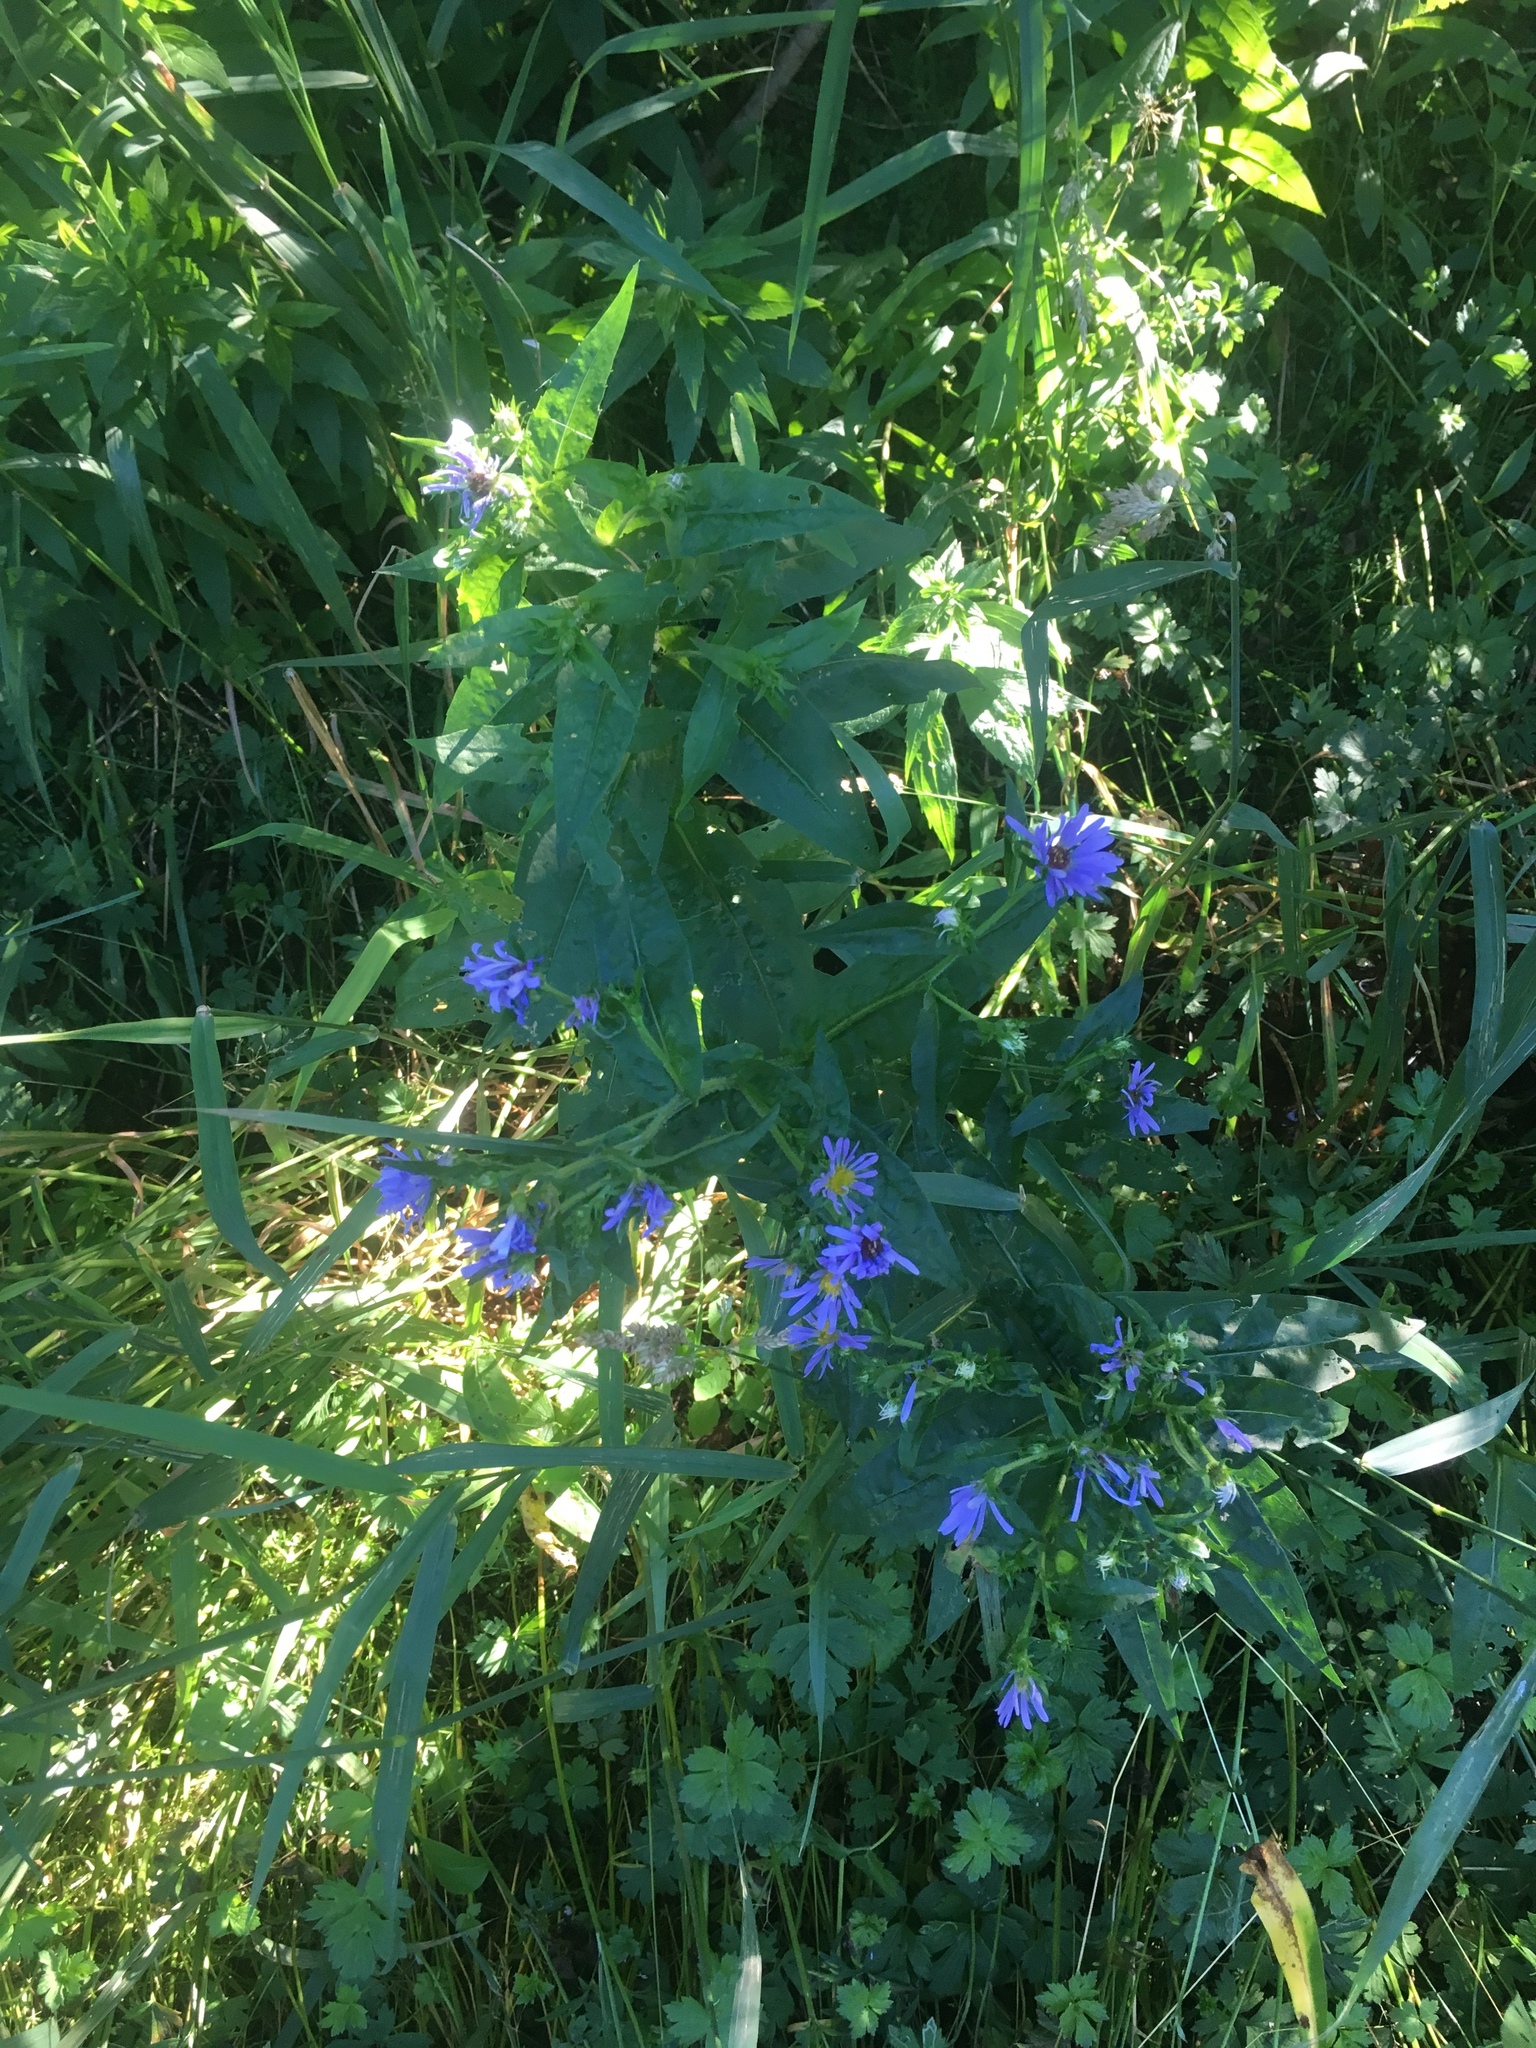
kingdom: Plantae
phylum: Tracheophyta
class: Magnoliopsida
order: Asterales
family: Asteraceae
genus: Symphyotrichum
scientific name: Symphyotrichum puniceum
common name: Bog aster
